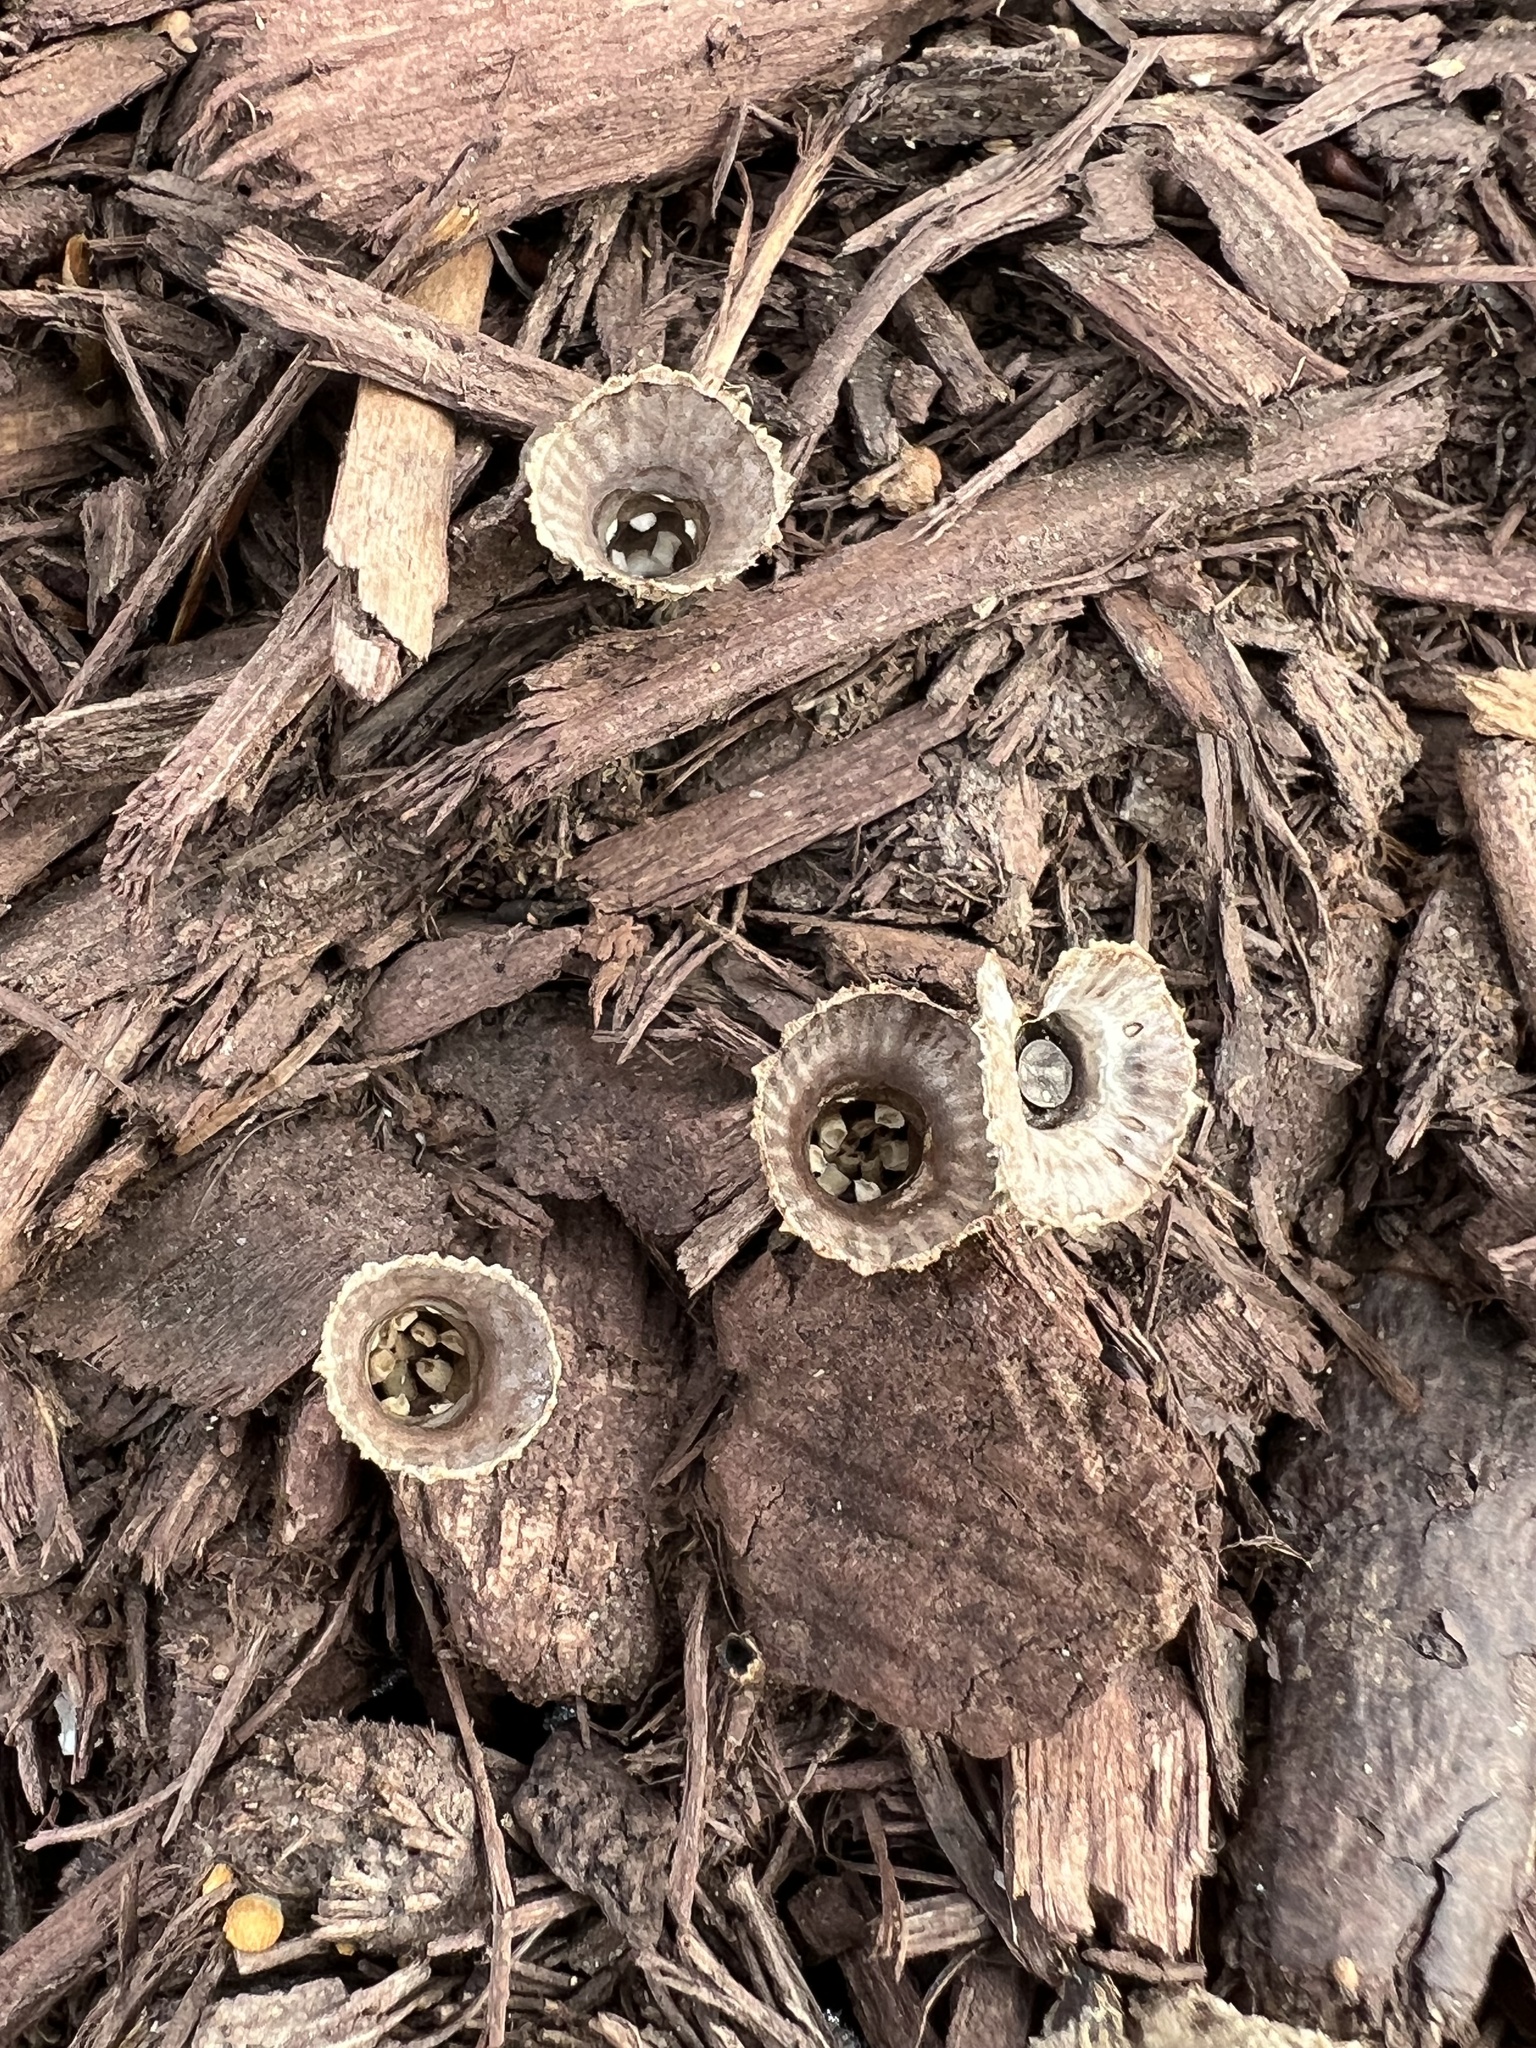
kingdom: Fungi
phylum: Basidiomycota
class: Agaricomycetes
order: Agaricales
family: Agaricaceae
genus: Cyathus
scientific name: Cyathus striatus
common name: Fluted bird's nest
